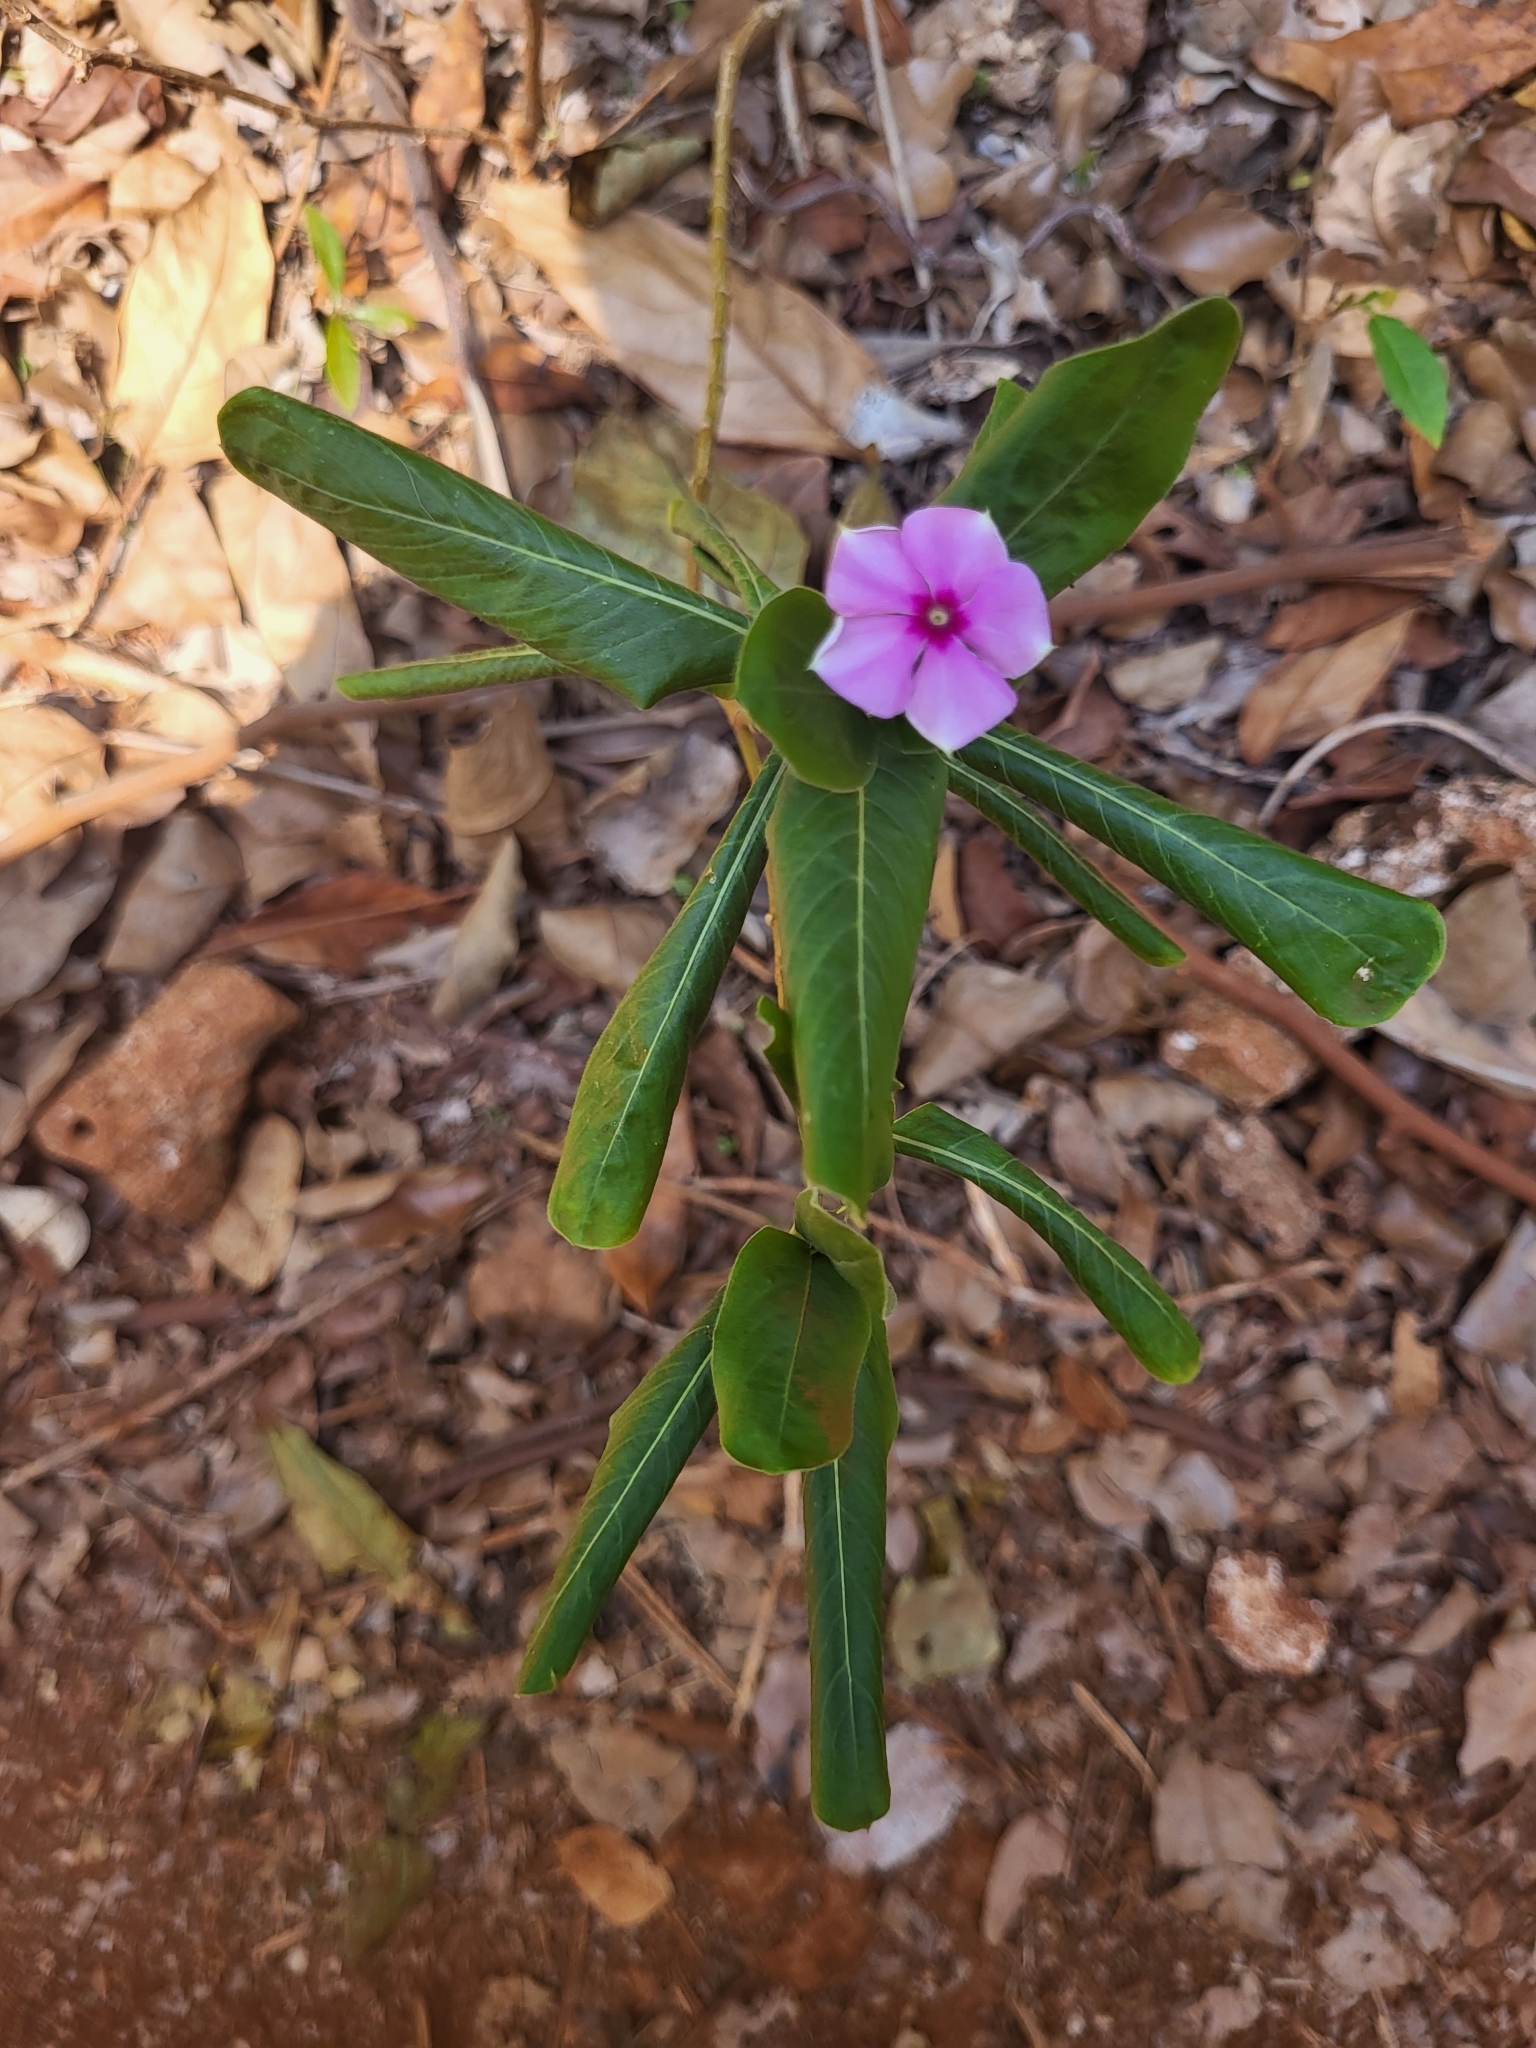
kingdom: Plantae
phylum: Tracheophyta
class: Magnoliopsida
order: Gentianales
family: Apocynaceae
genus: Catharanthus
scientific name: Catharanthus roseus
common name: Madagascar periwinkle
